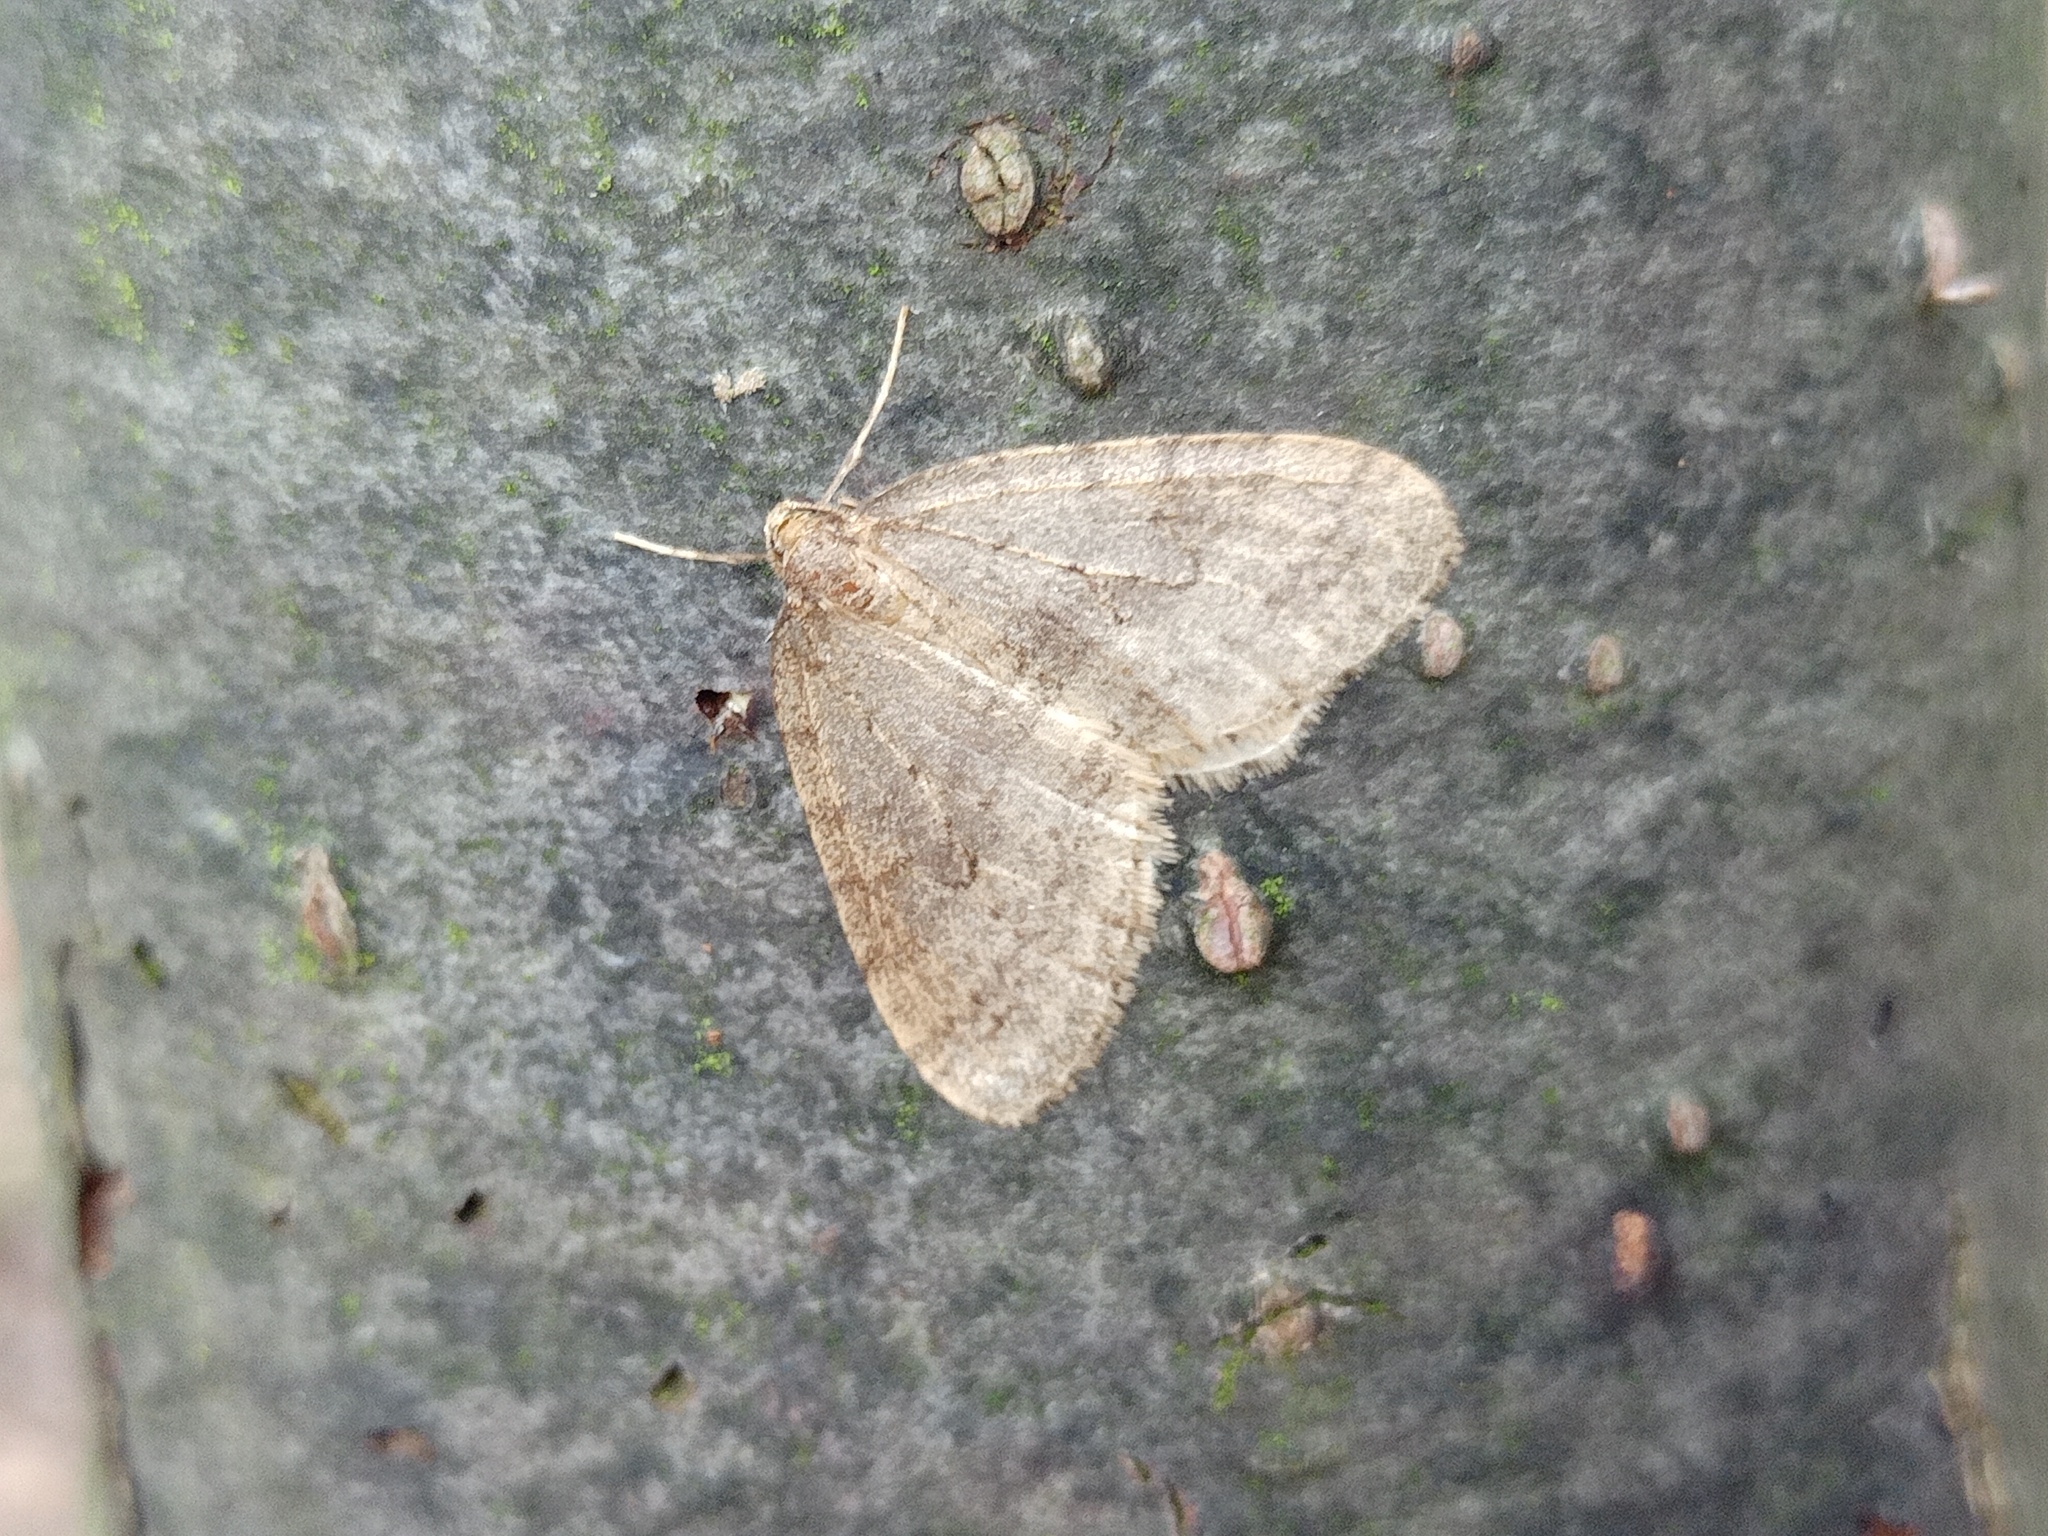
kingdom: Animalia
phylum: Arthropoda
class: Insecta
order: Lepidoptera
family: Geometridae
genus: Operophtera
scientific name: Operophtera brumata
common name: Winter moth
